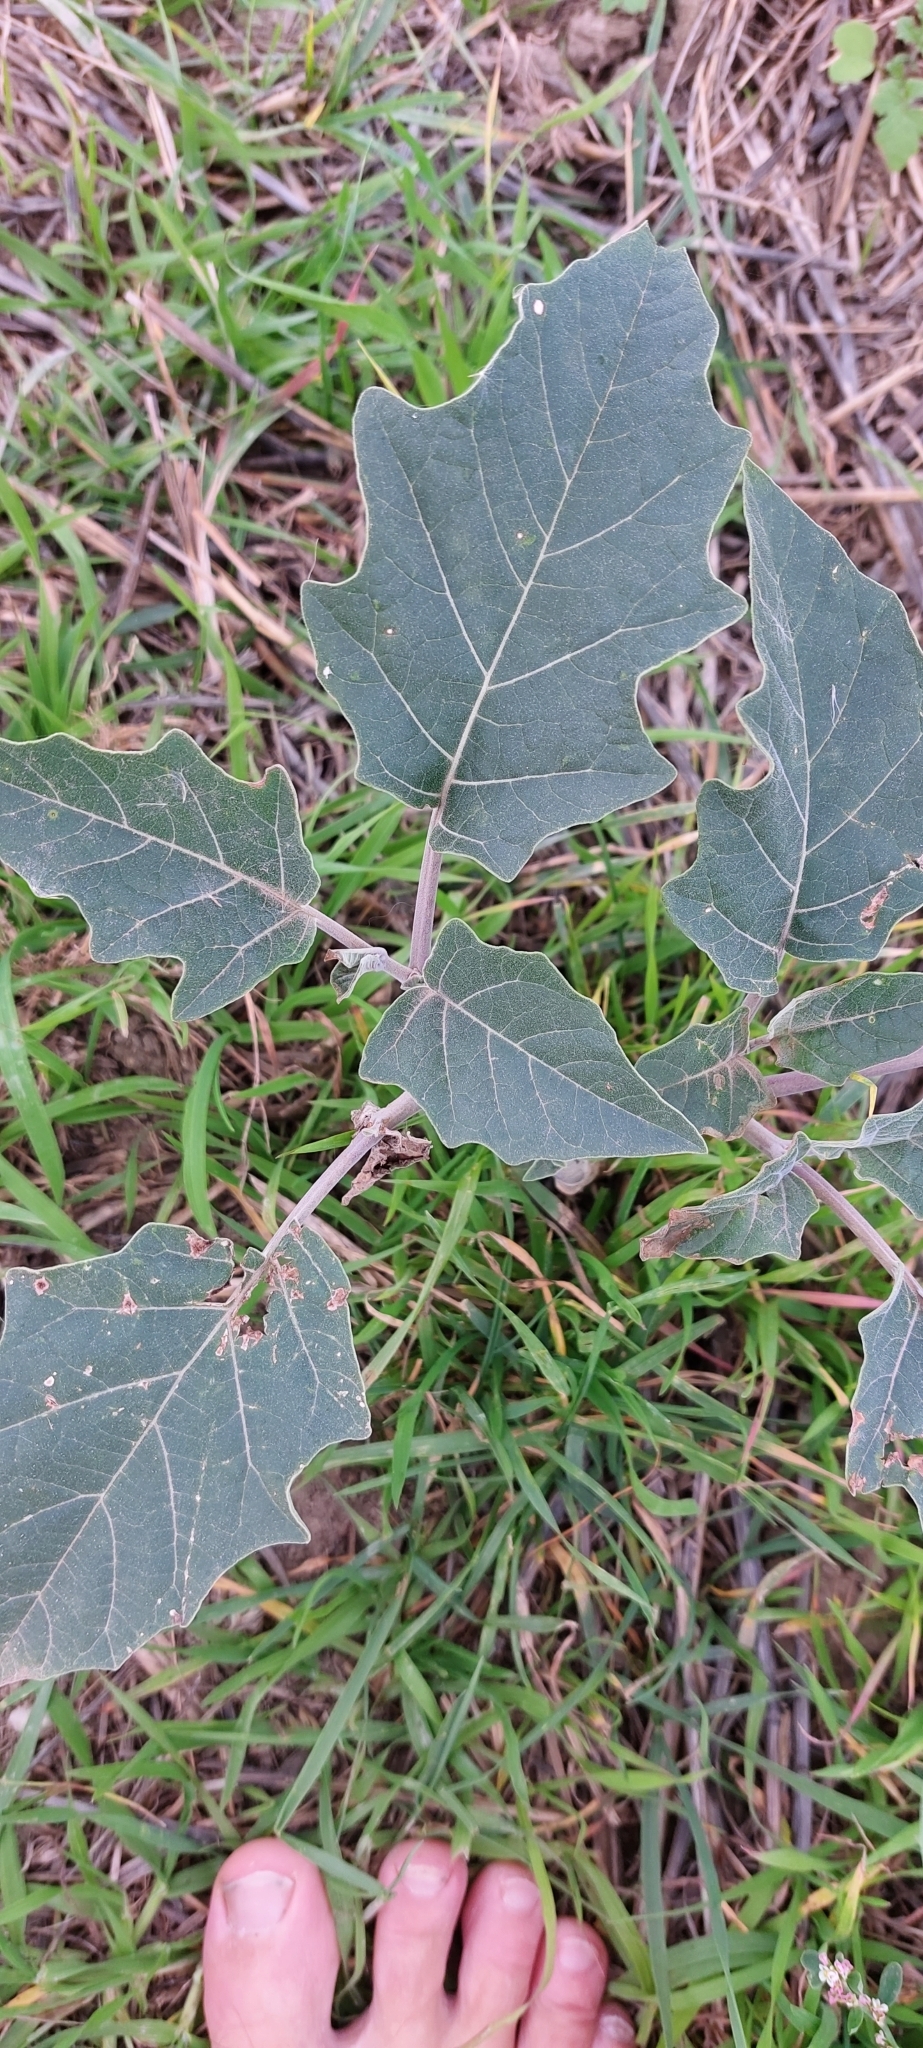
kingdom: Plantae
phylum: Tracheophyta
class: Magnoliopsida
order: Solanales
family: Solanaceae
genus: Datura
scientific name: Datura
